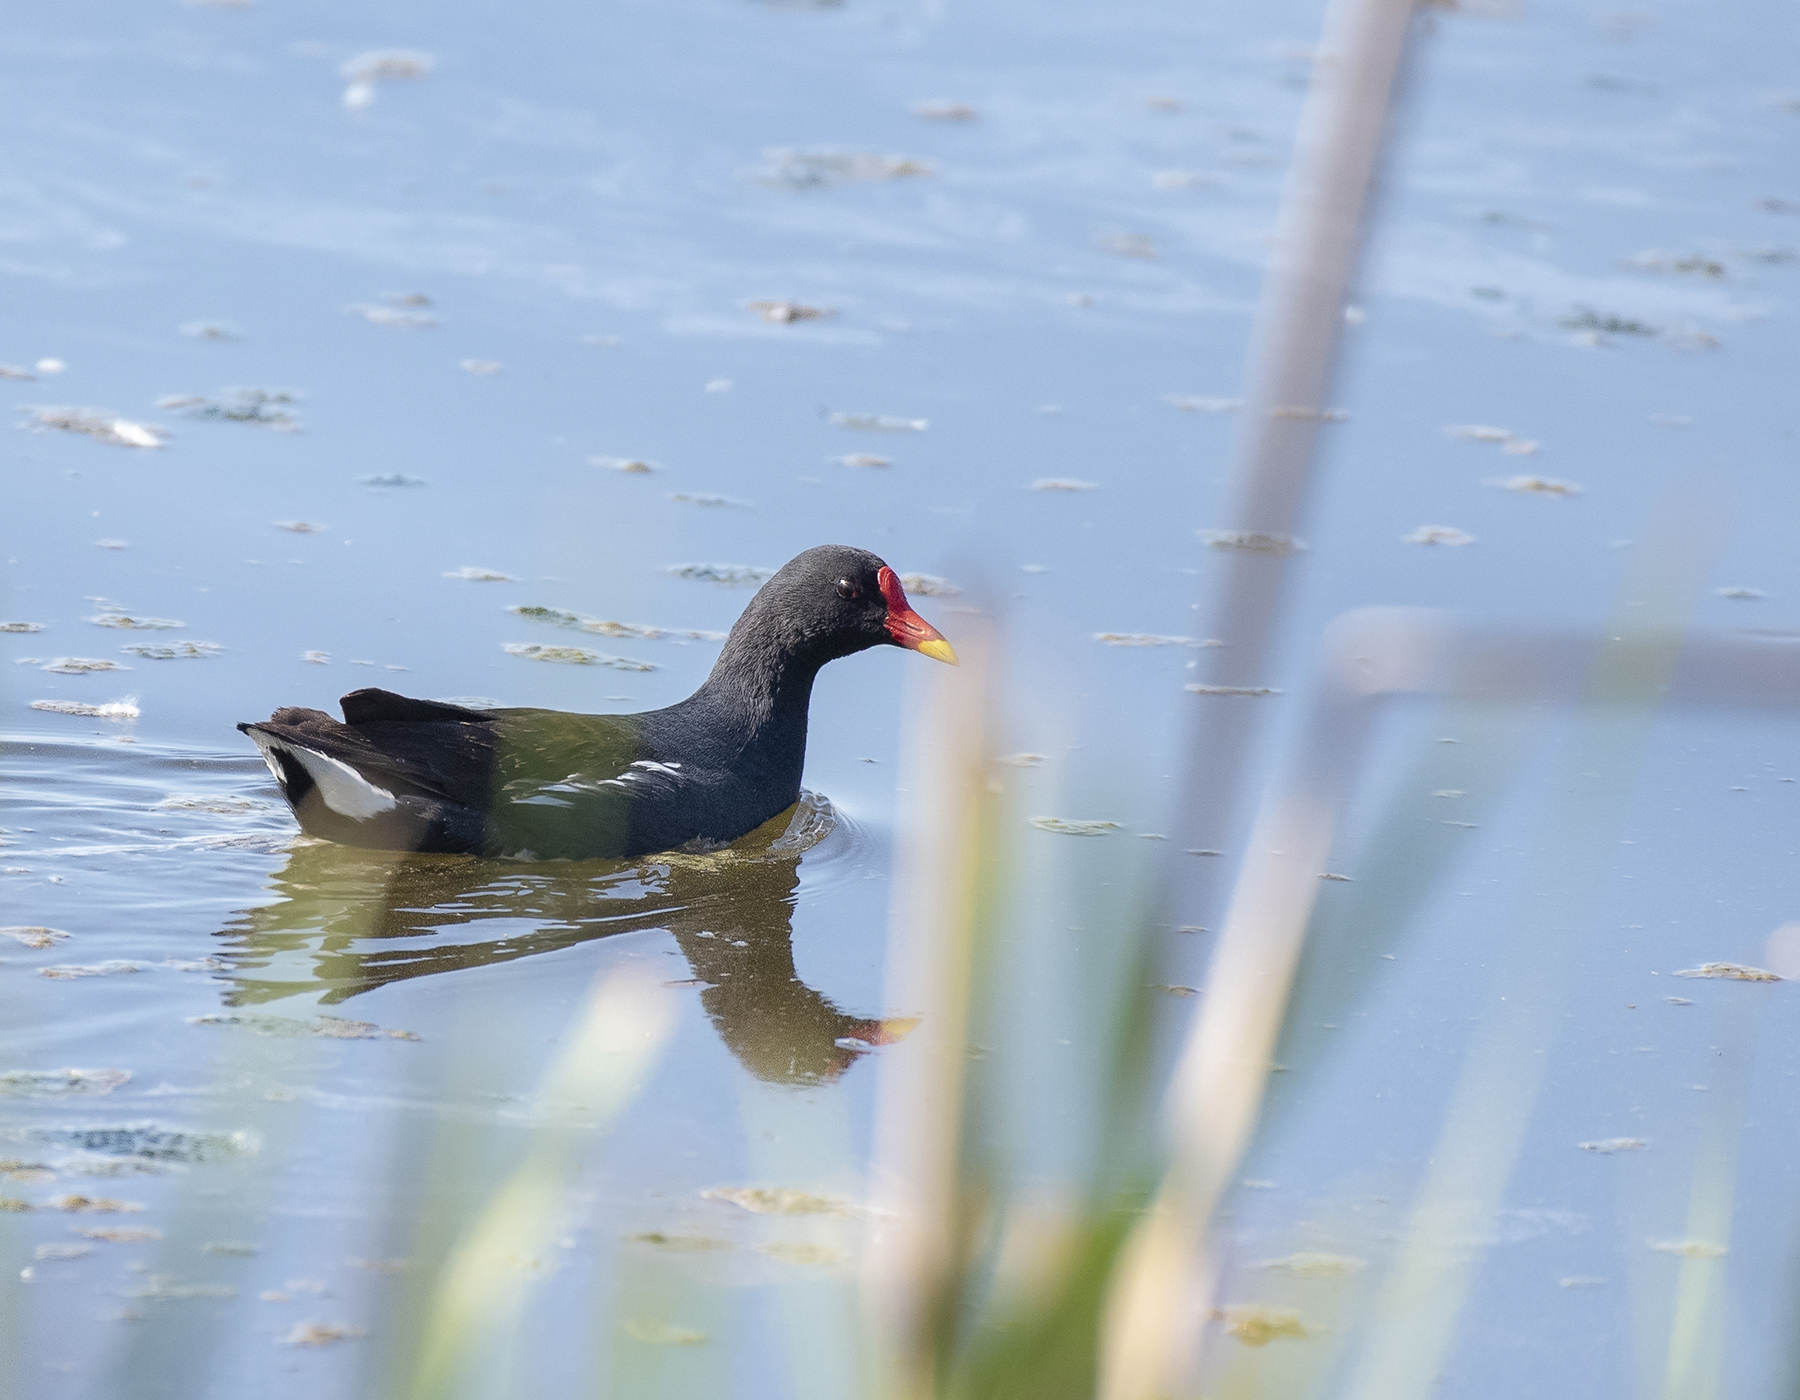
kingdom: Animalia
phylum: Chordata
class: Aves
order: Gruiformes
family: Rallidae
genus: Gallinula
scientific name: Gallinula chloropus
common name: Common moorhen
